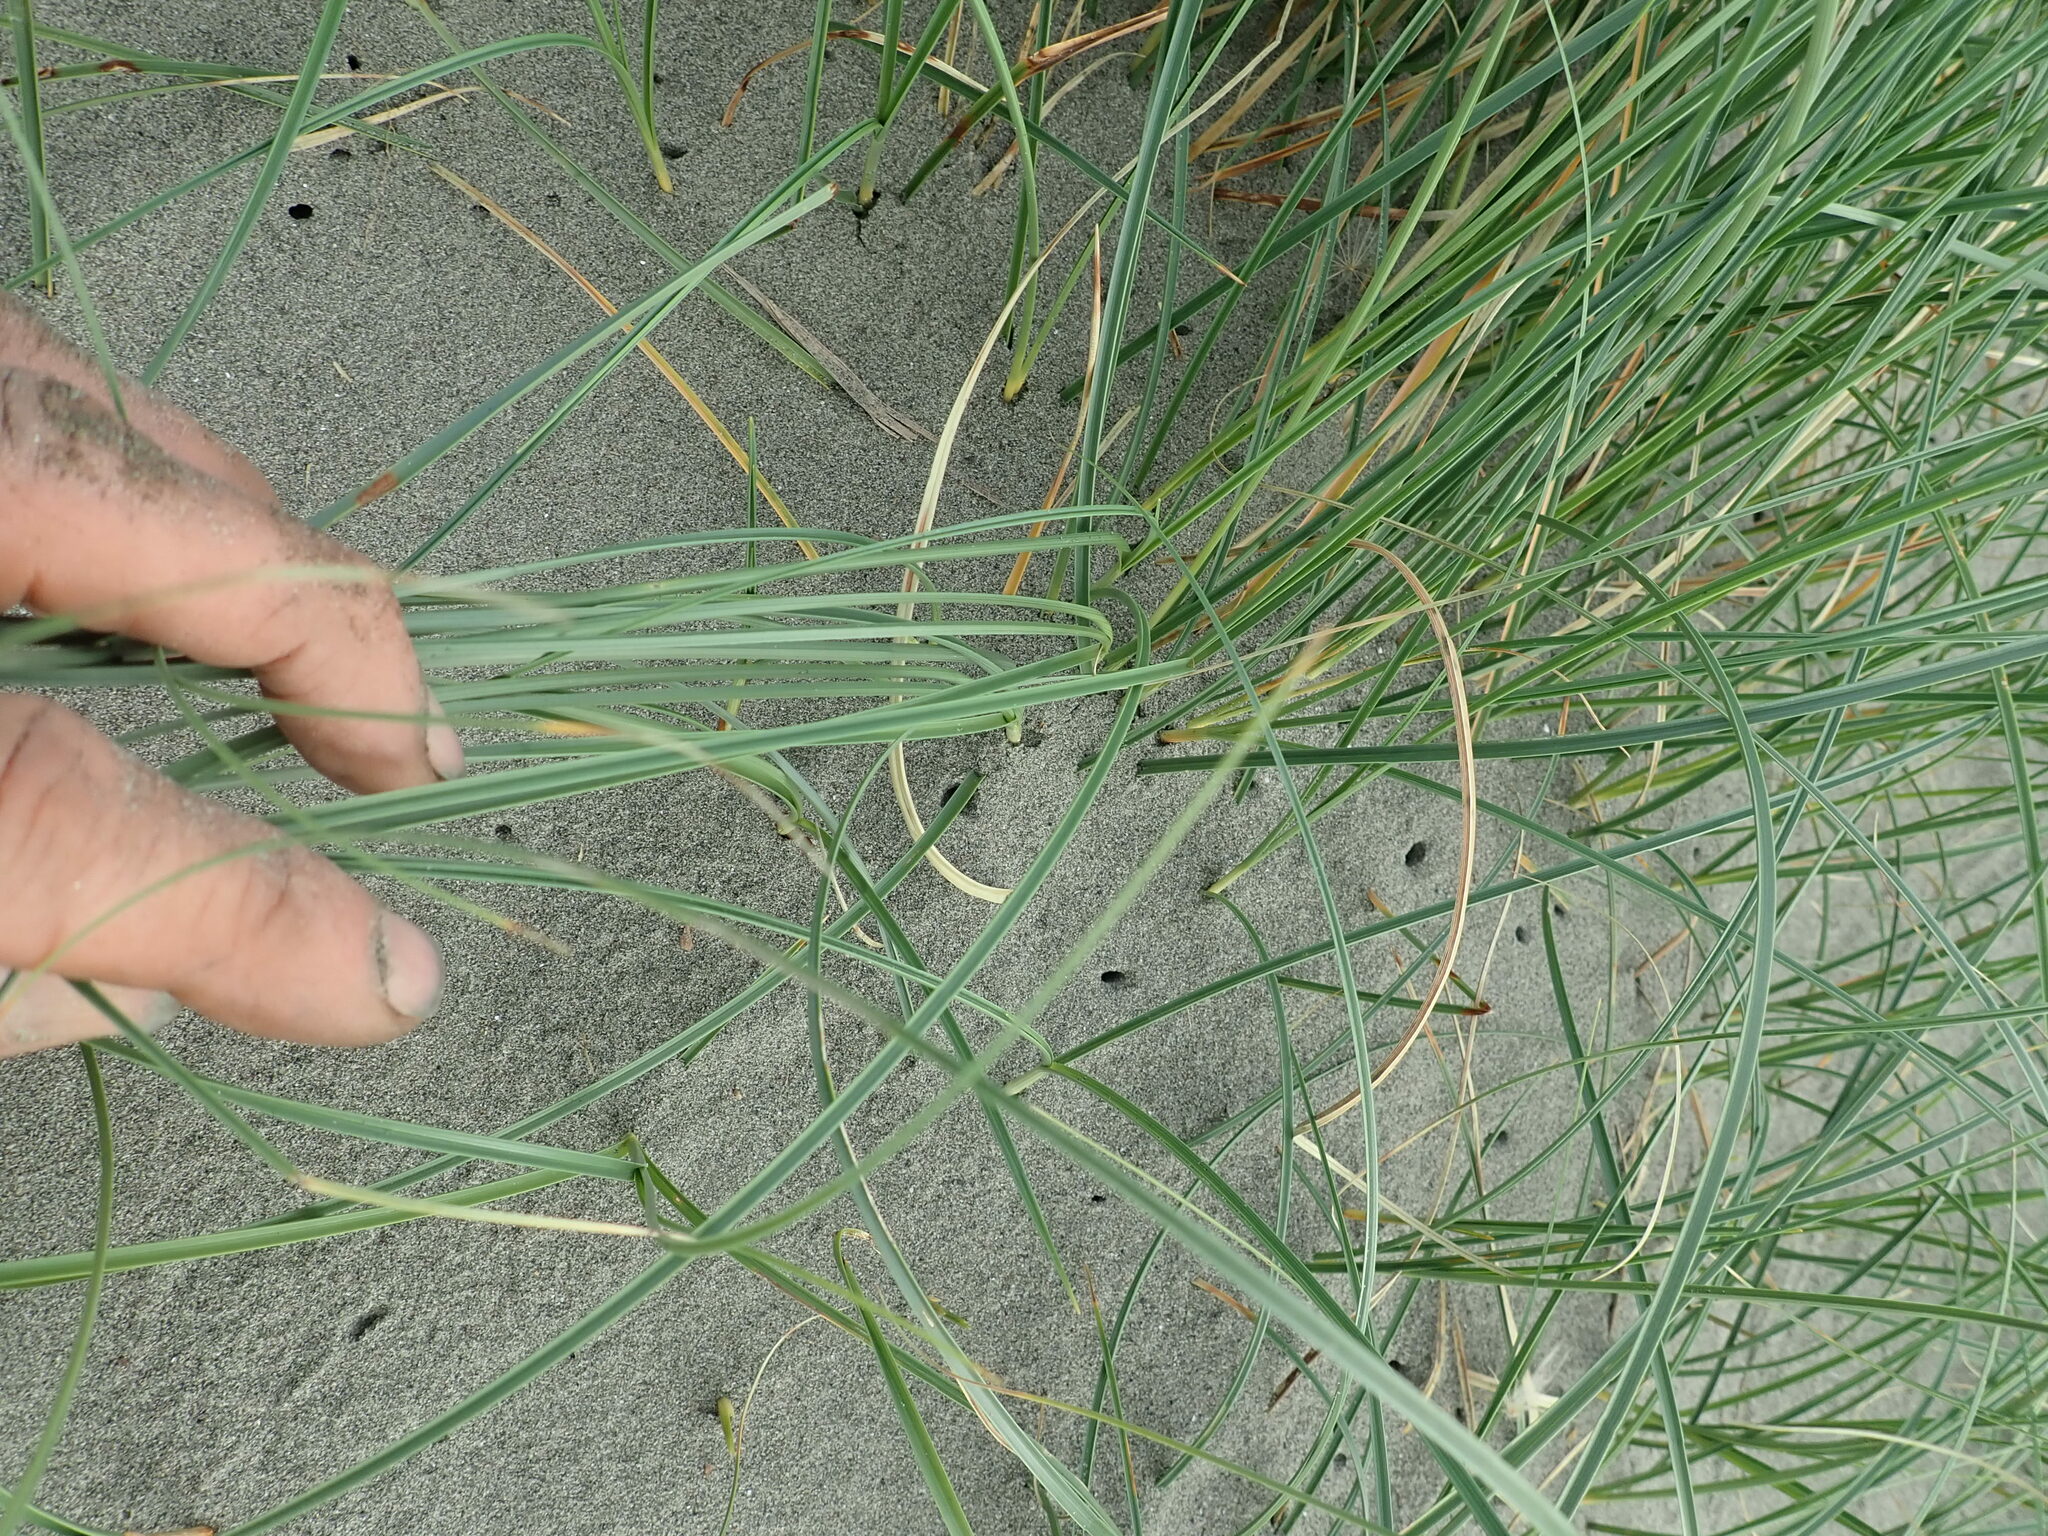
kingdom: Plantae
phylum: Tracheophyta
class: Liliopsida
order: Poales
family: Cyperaceae
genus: Carex
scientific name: Carex pumila
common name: Dwarf sedge
